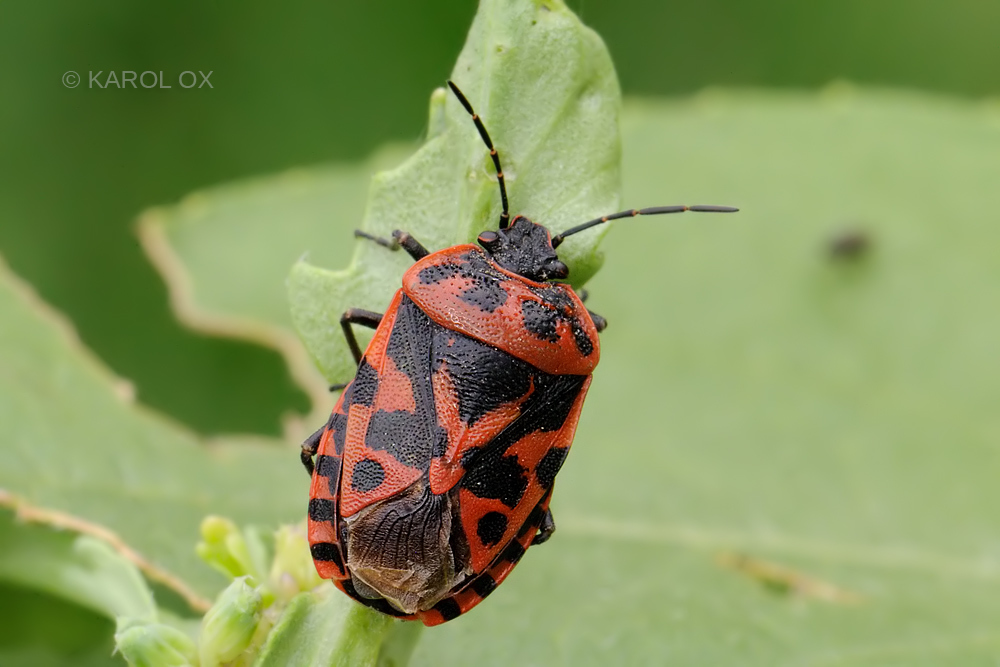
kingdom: Animalia
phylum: Arthropoda
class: Insecta
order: Hemiptera
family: Pentatomidae
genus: Eurydema
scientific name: Eurydema ventralis
